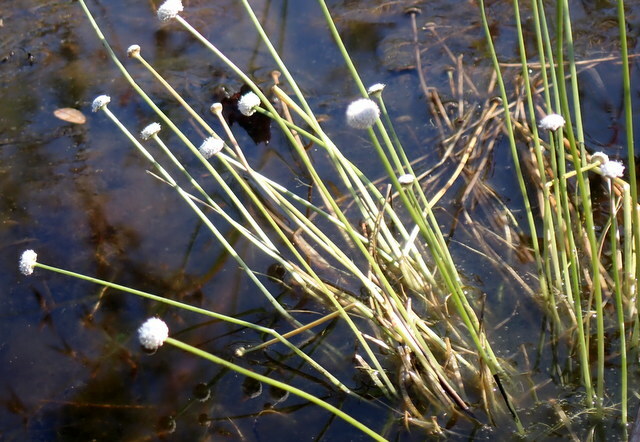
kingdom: Plantae
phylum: Tracheophyta
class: Liliopsida
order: Poales
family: Eriocaulaceae
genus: Eriocaulon
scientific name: Eriocaulon decangulare
